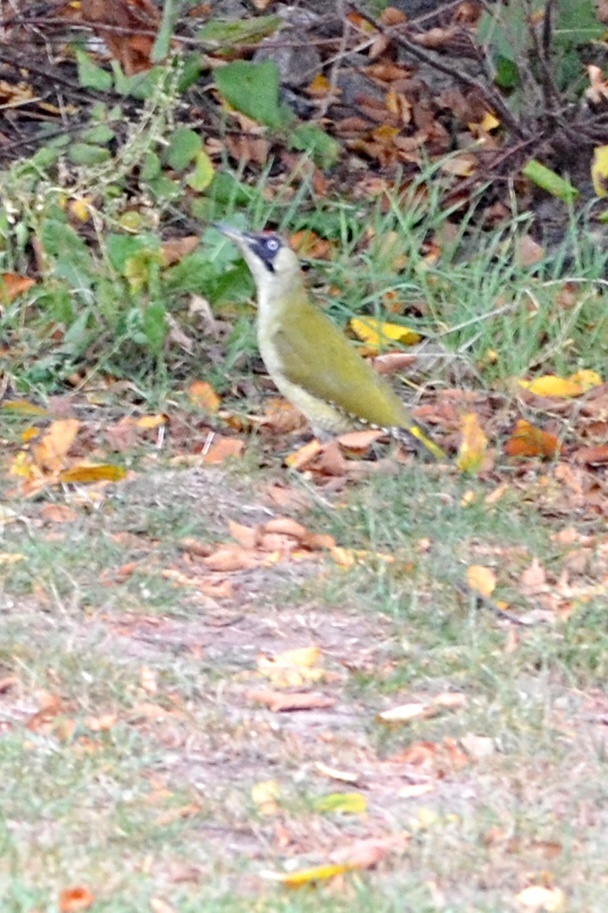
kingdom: Animalia
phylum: Chordata
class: Aves
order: Piciformes
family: Picidae
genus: Picus
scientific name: Picus viridis
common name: European green woodpecker
